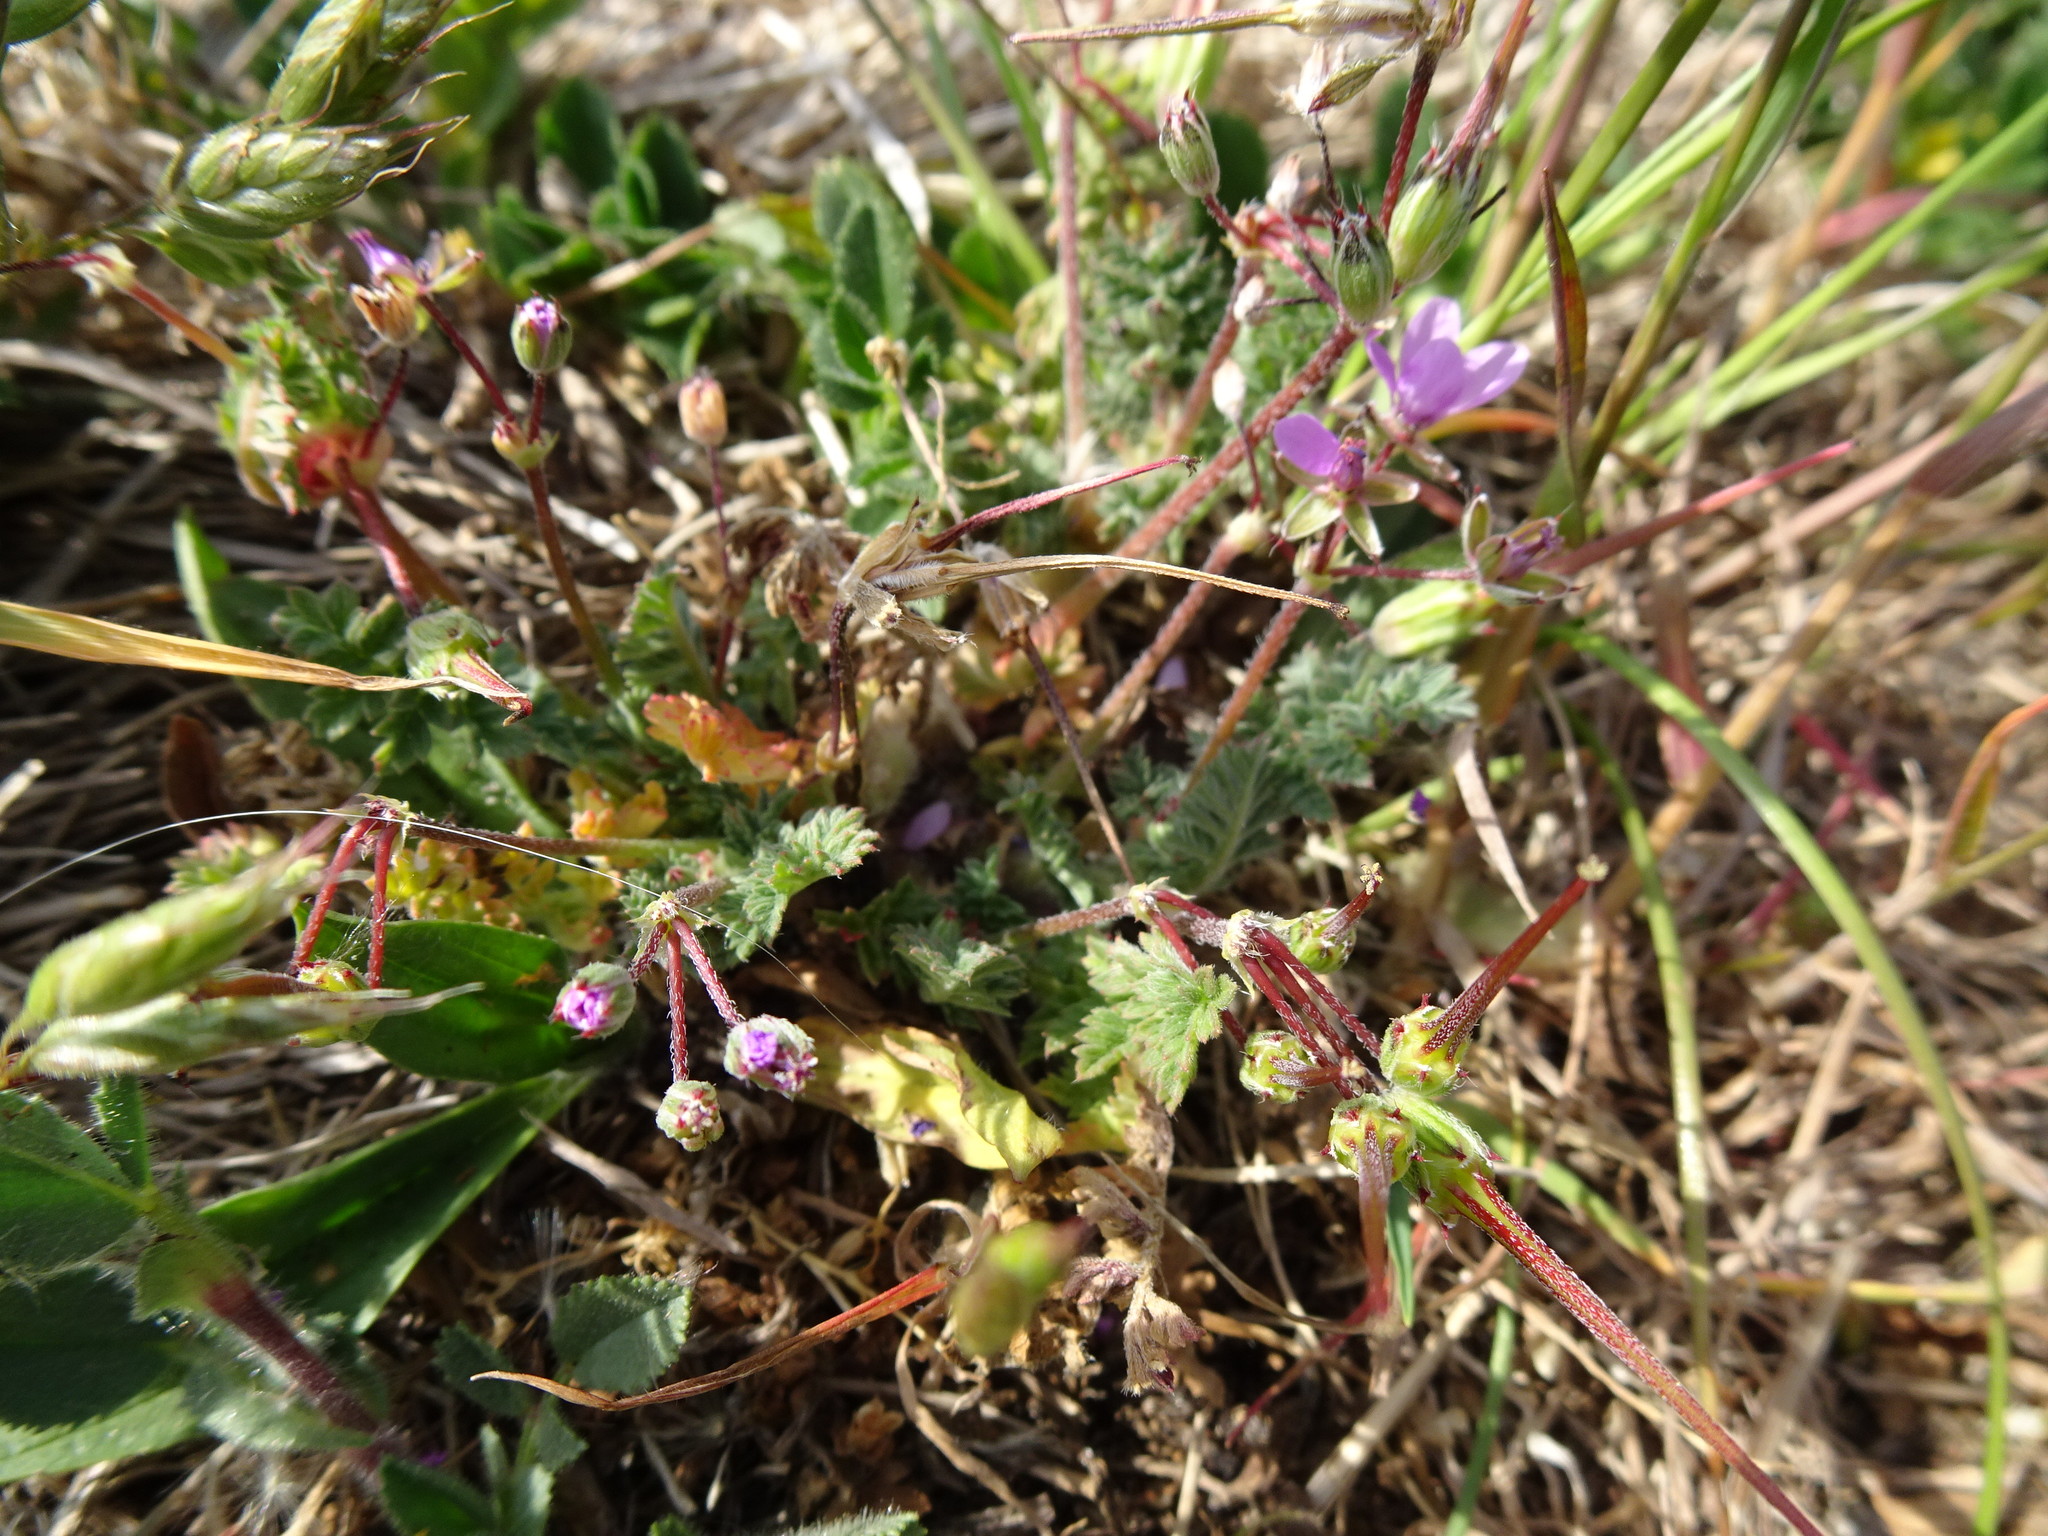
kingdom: Plantae
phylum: Tracheophyta
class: Magnoliopsida
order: Geraniales
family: Geraniaceae
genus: Erodium
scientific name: Erodium cicutarium
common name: Common stork's-bill
